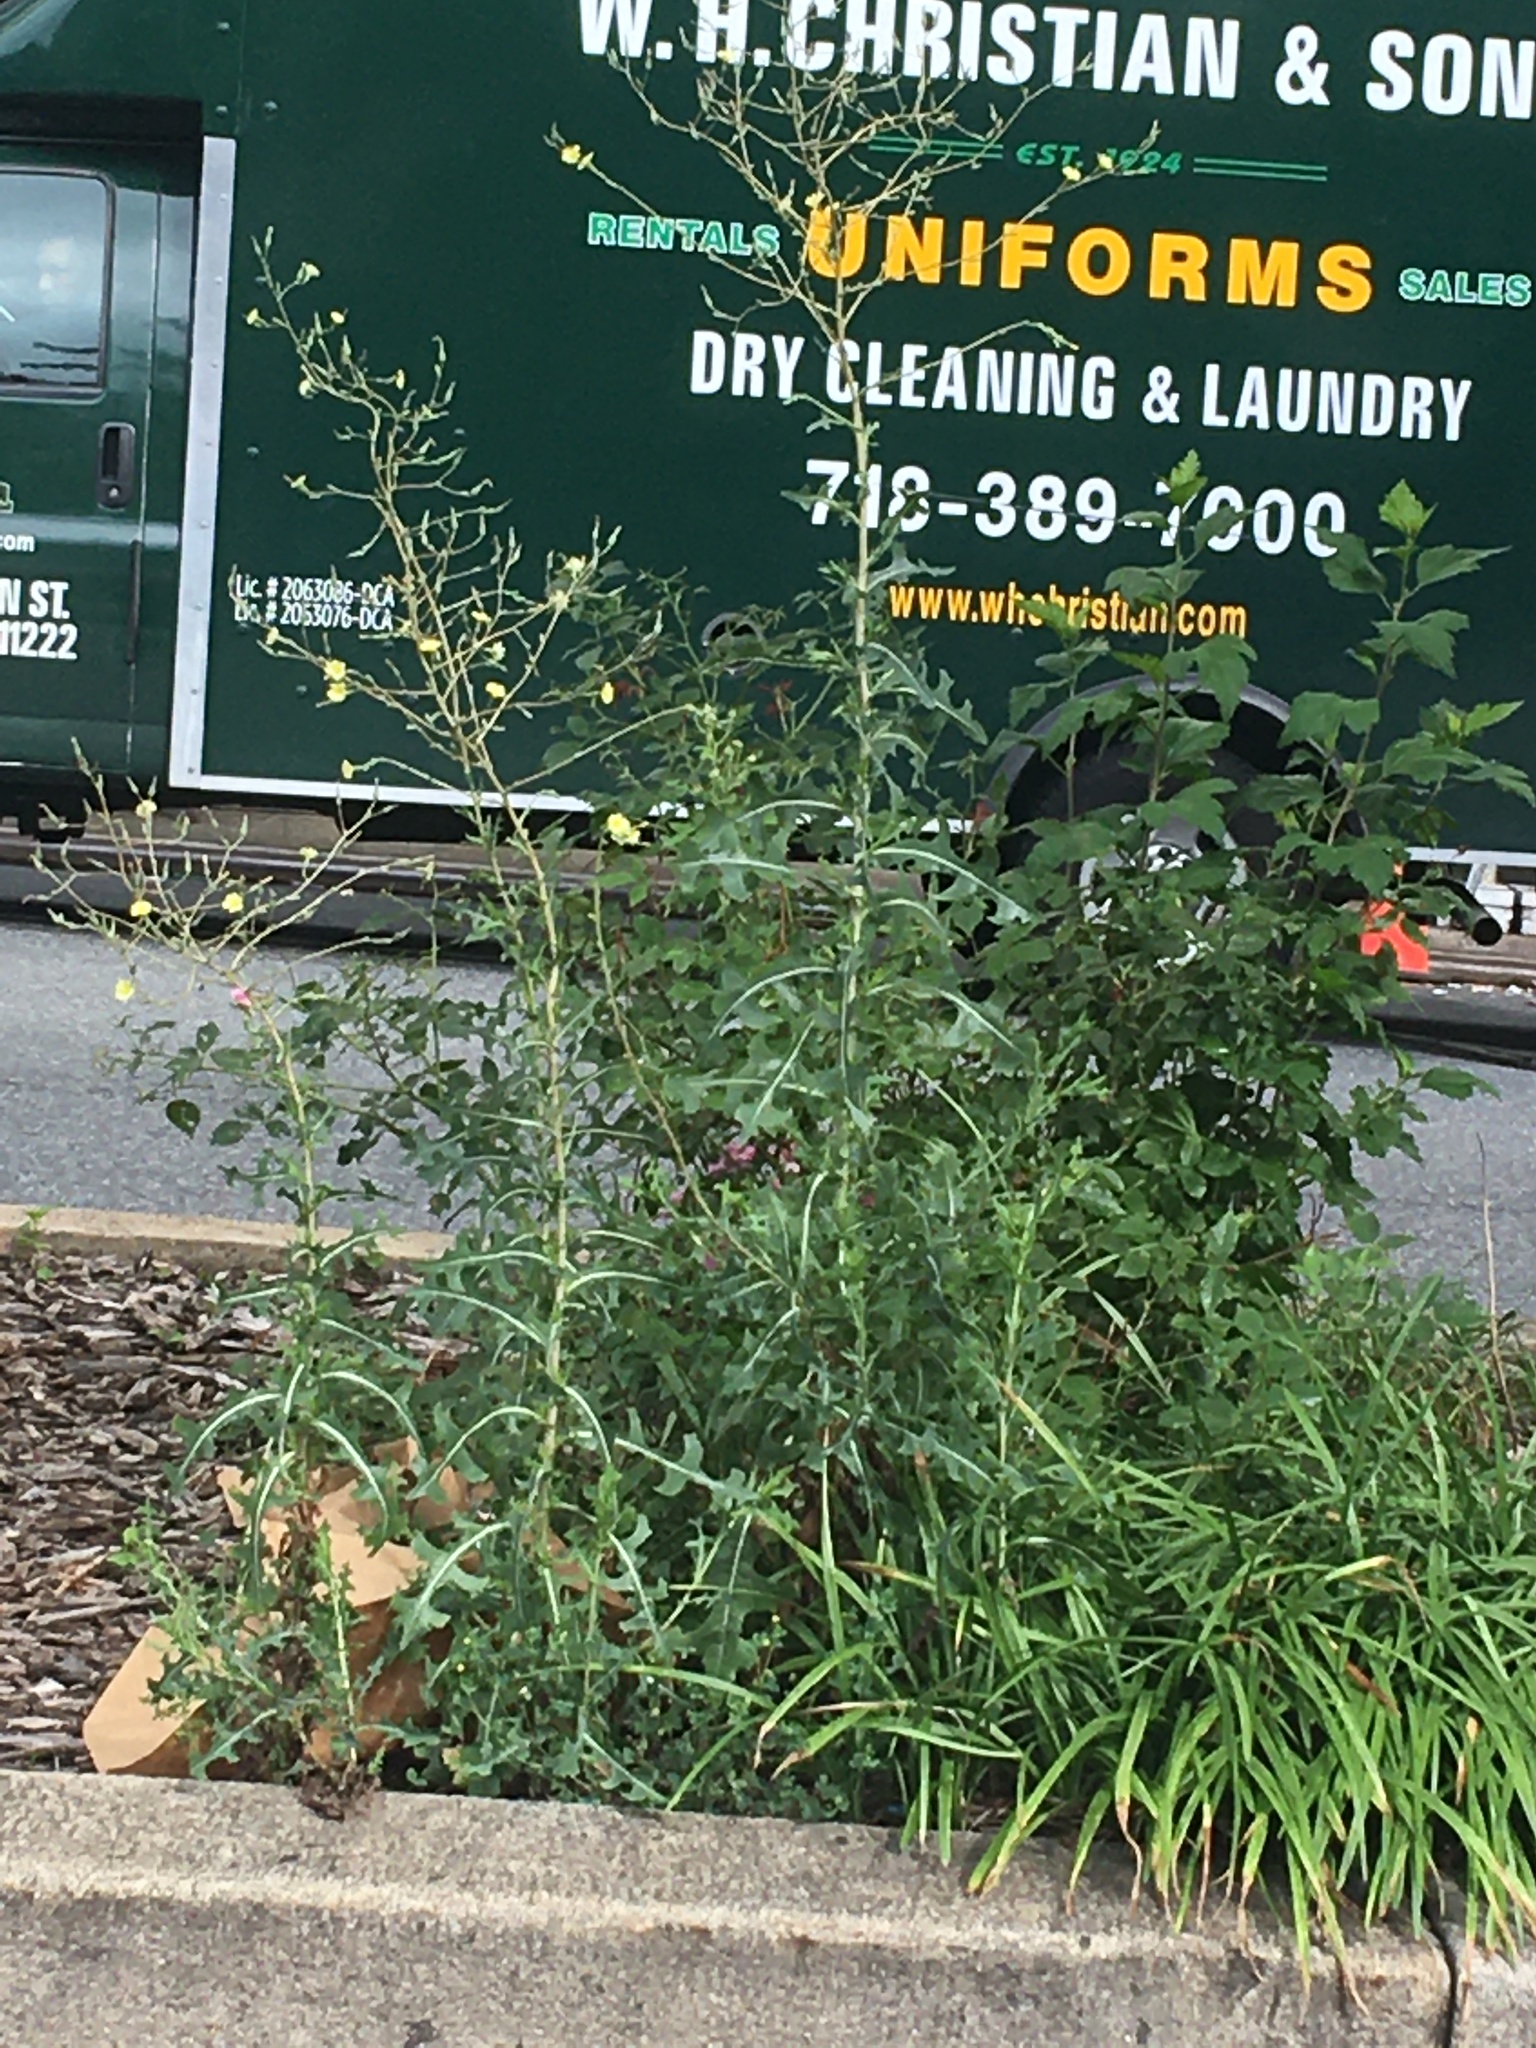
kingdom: Plantae
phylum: Tracheophyta
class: Magnoliopsida
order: Asterales
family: Asteraceae
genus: Lactuca
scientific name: Lactuca serriola
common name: Prickly lettuce
